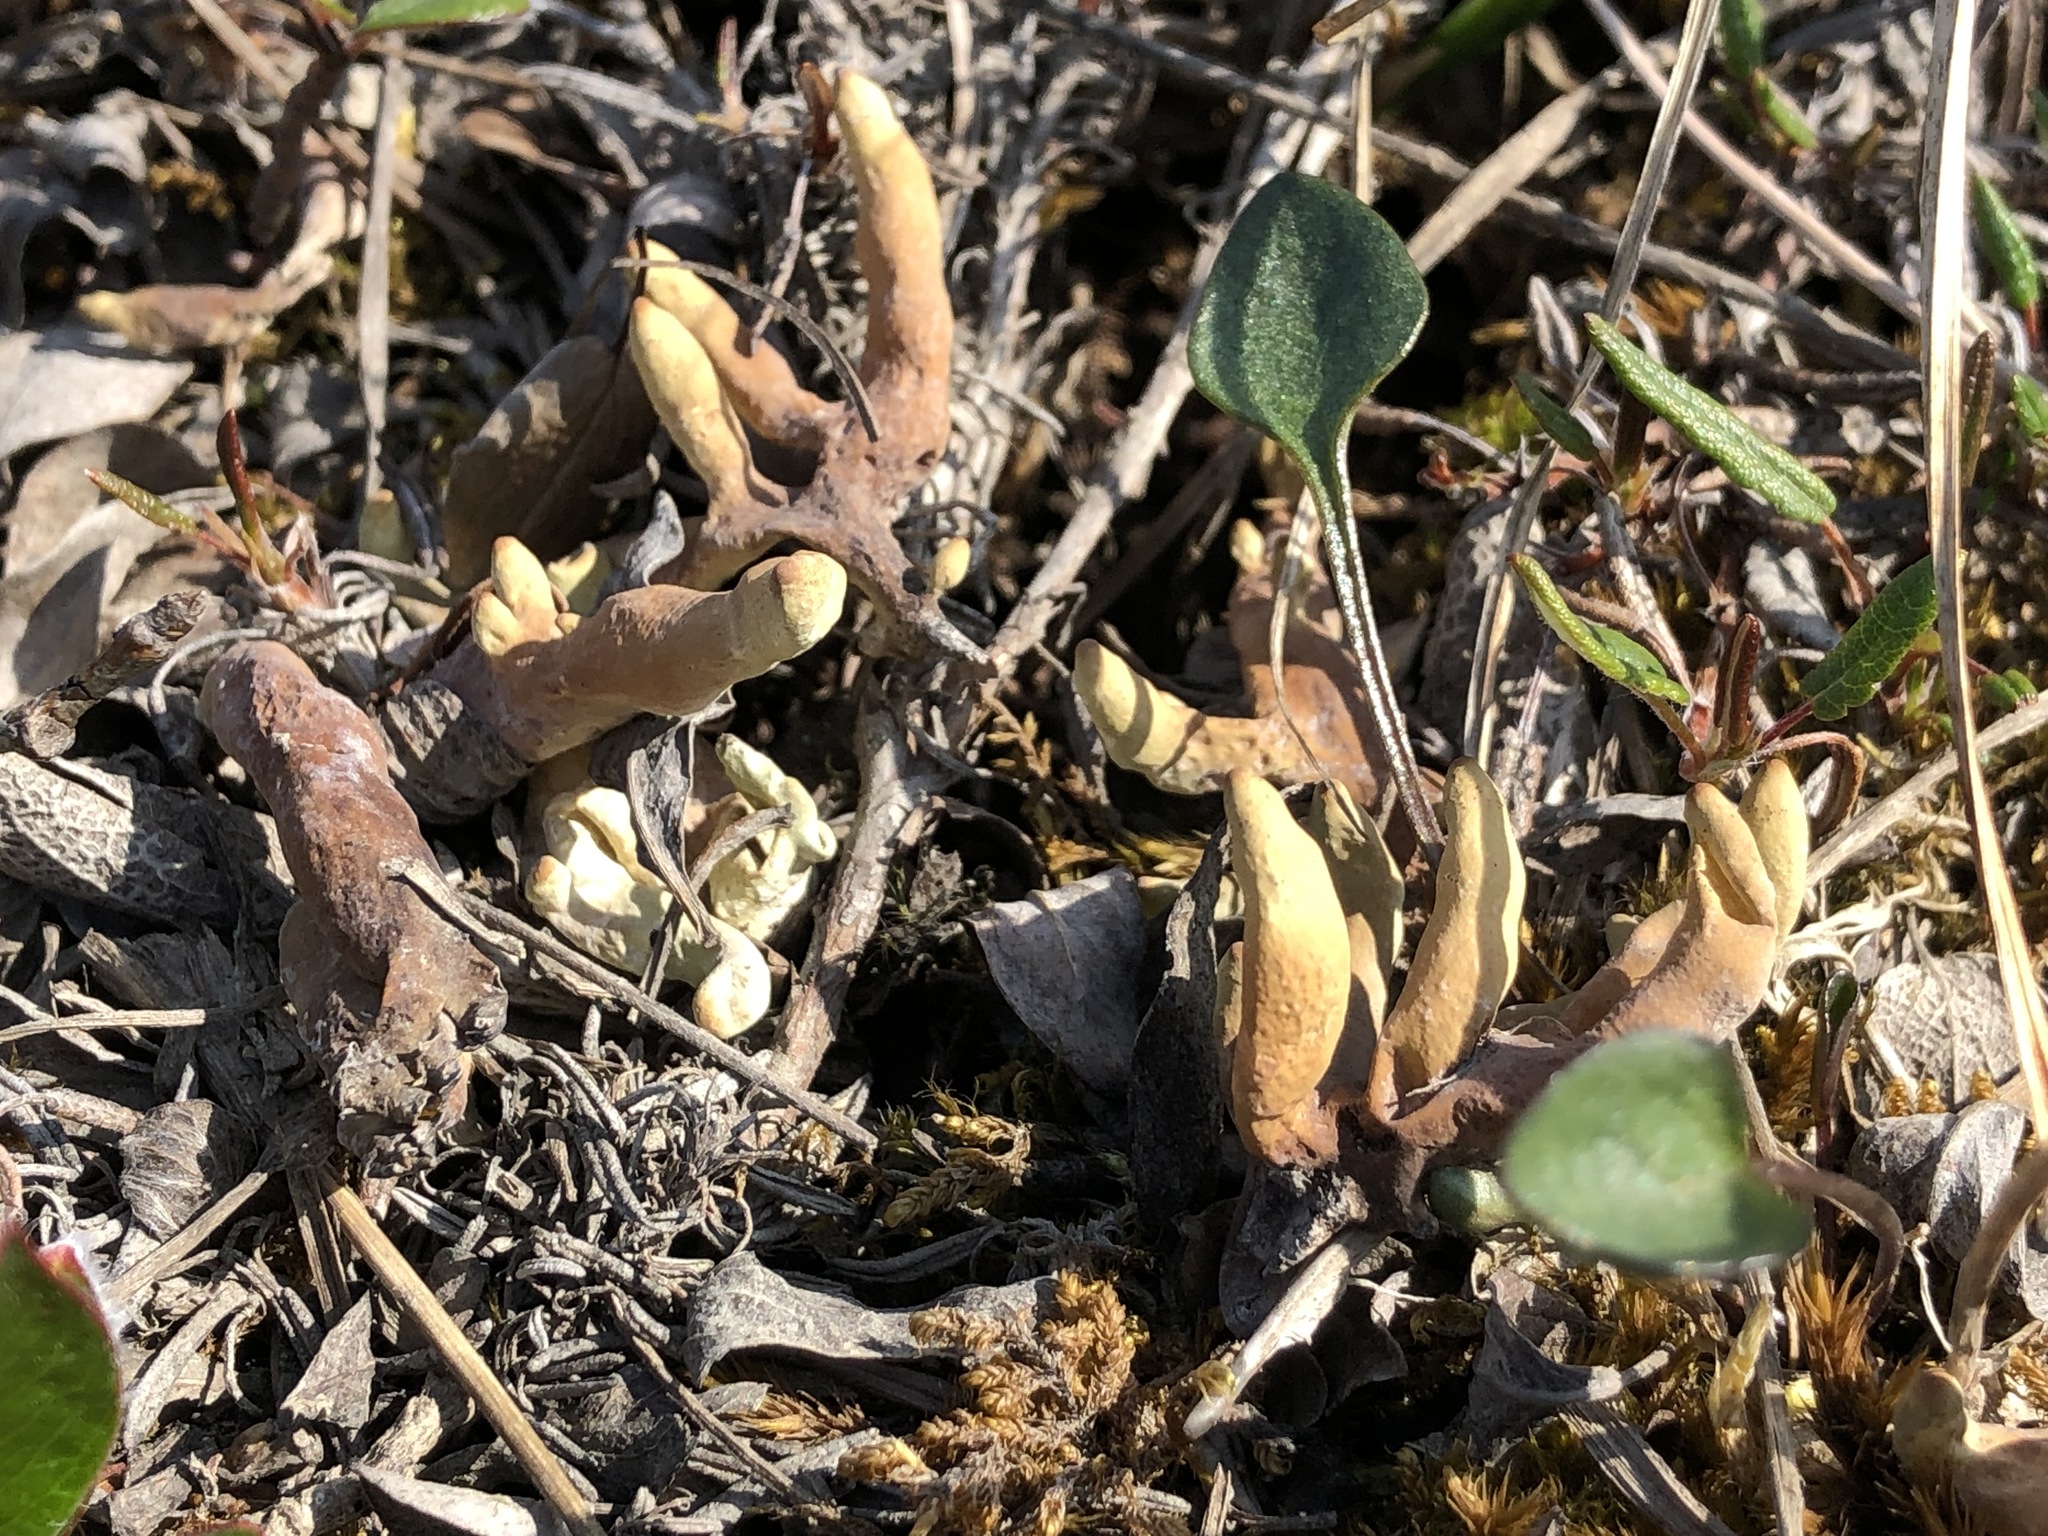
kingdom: Fungi
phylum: Ascomycota
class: Lecanoromycetes
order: Lecanorales
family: Parmeliaceae
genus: Dactylina
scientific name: Dactylina arctica
